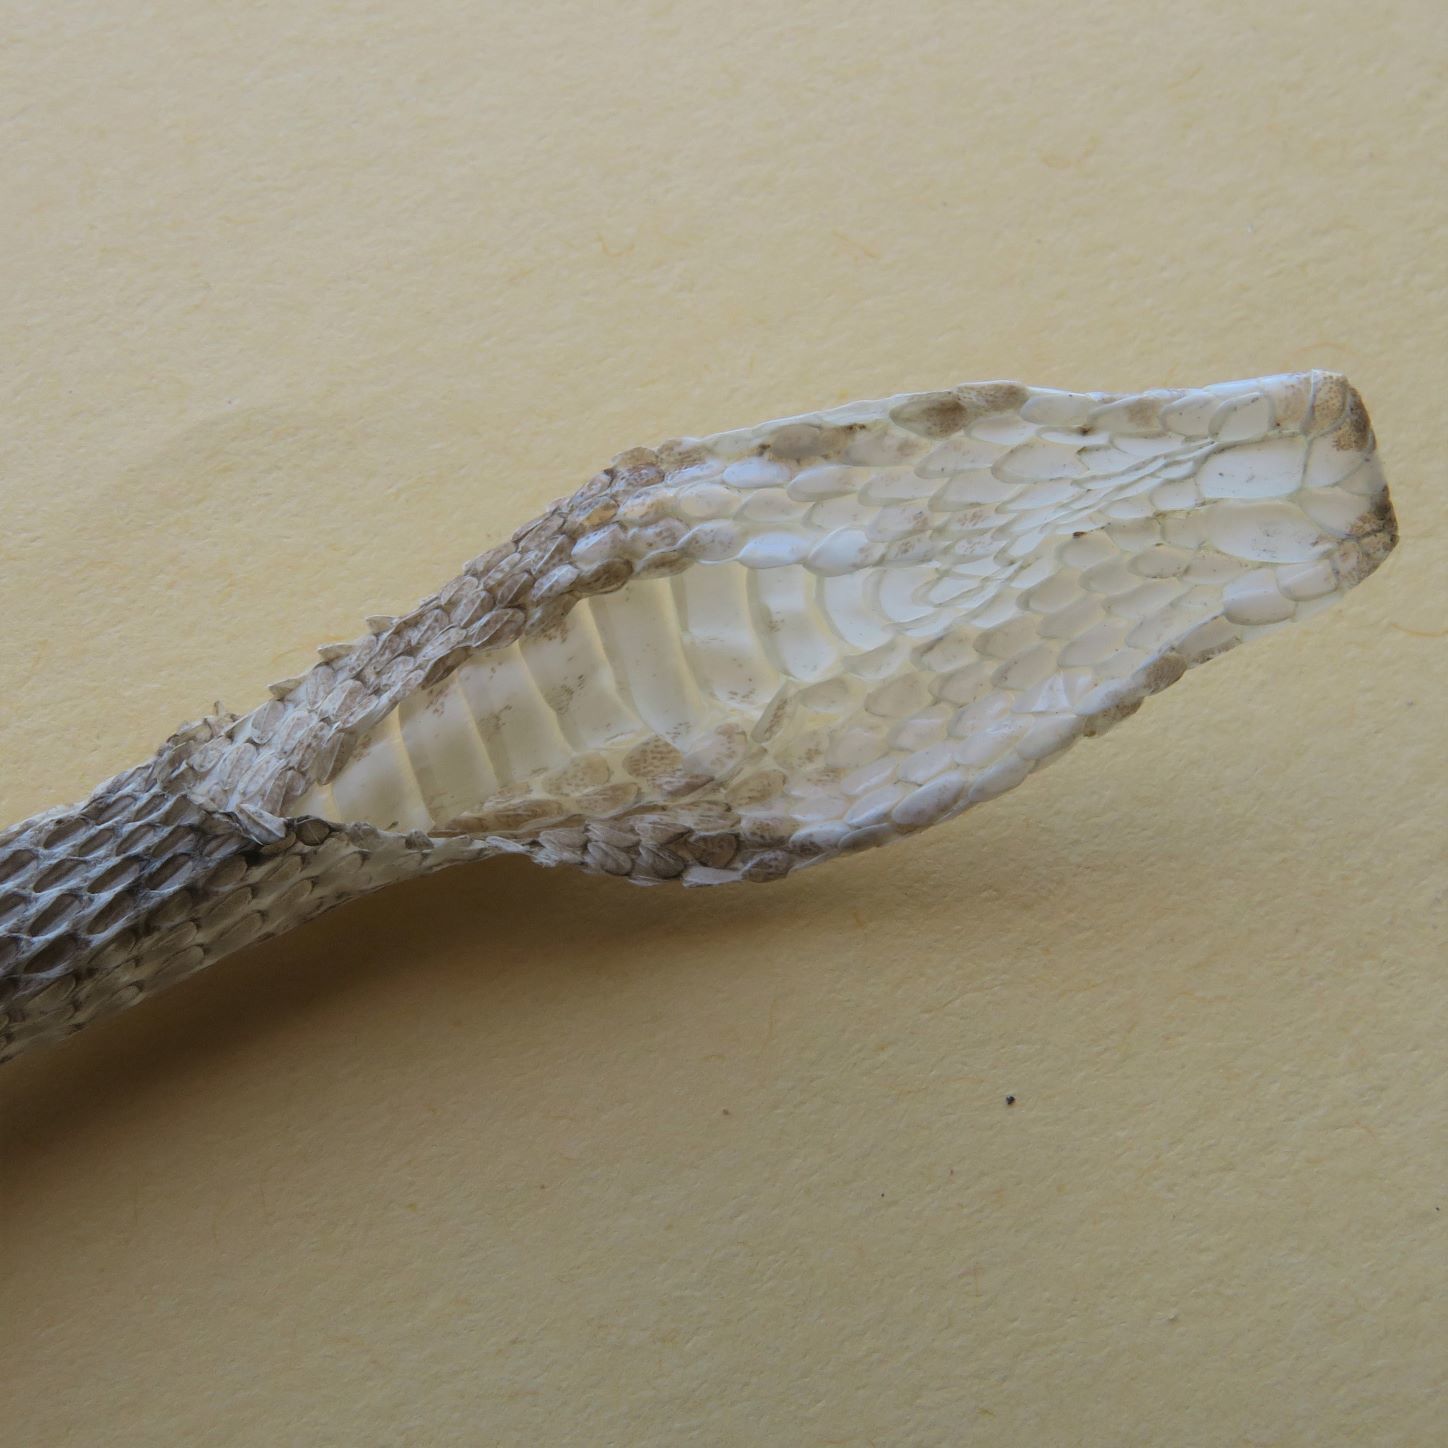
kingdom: Animalia
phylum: Chordata
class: Squamata
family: Viperidae
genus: Bitis
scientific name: Bitis caudalis
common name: Horned adder
